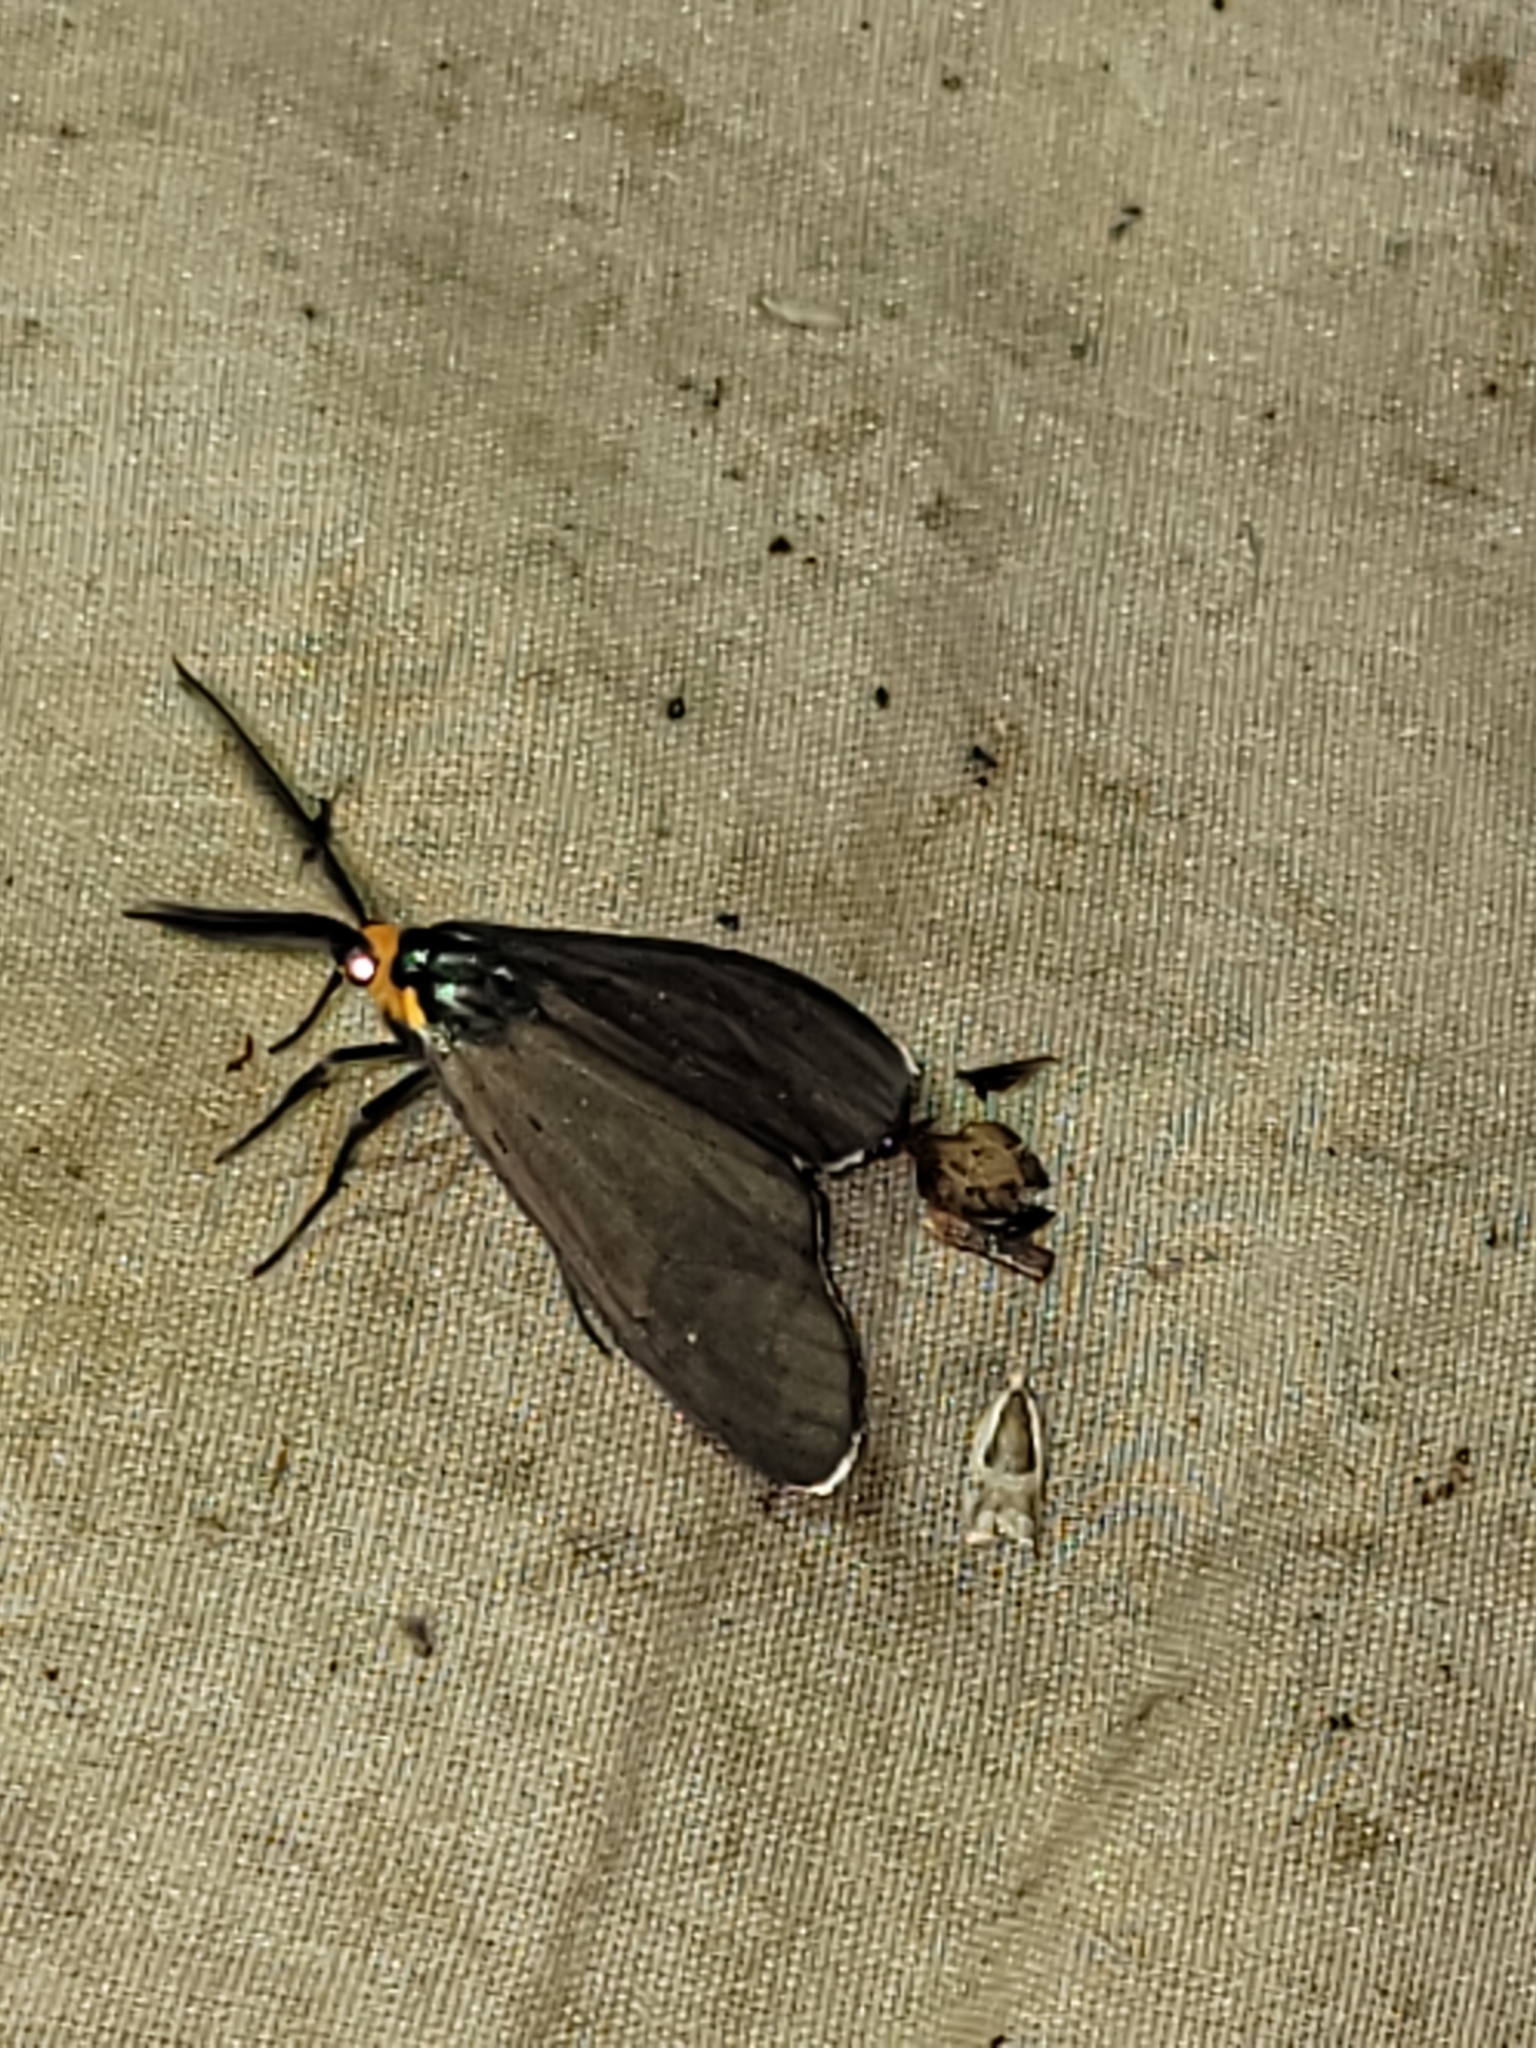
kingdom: Animalia
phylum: Arthropoda
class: Insecta
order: Lepidoptera
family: Erebidae
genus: Ctenucha
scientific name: Ctenucha virginica
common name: Virginia ctenucha moth
